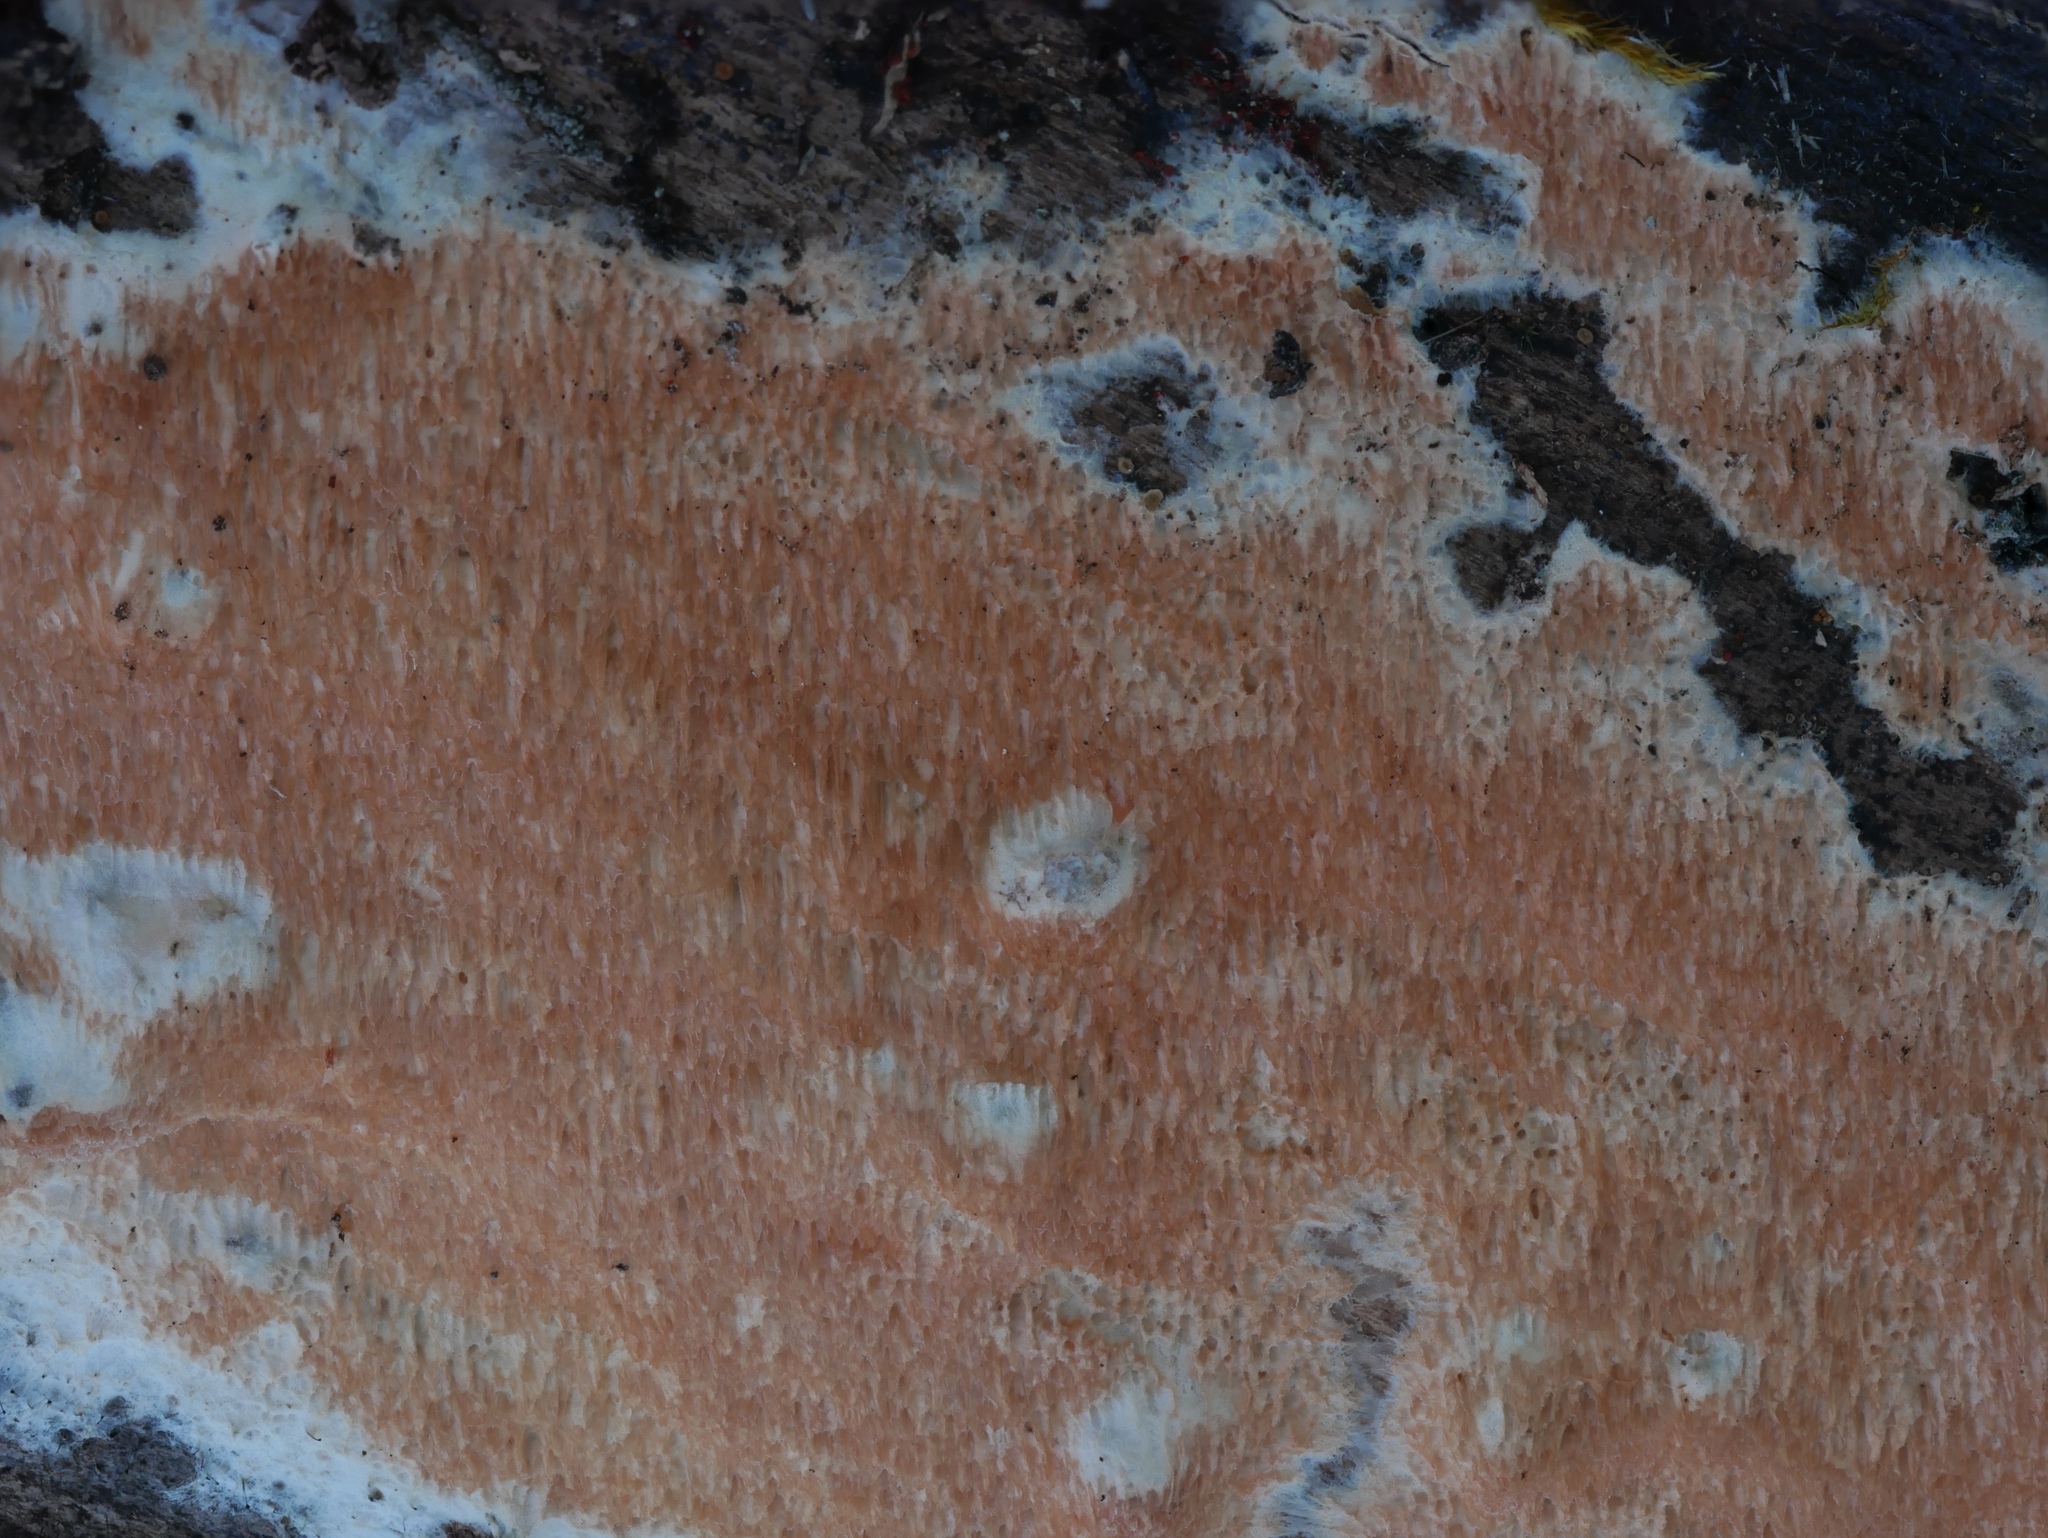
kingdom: Fungi
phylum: Basidiomycota
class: Agaricomycetes
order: Polyporales
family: Steccherinaceae
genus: Junghuhnia
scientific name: Junghuhnia nitida
